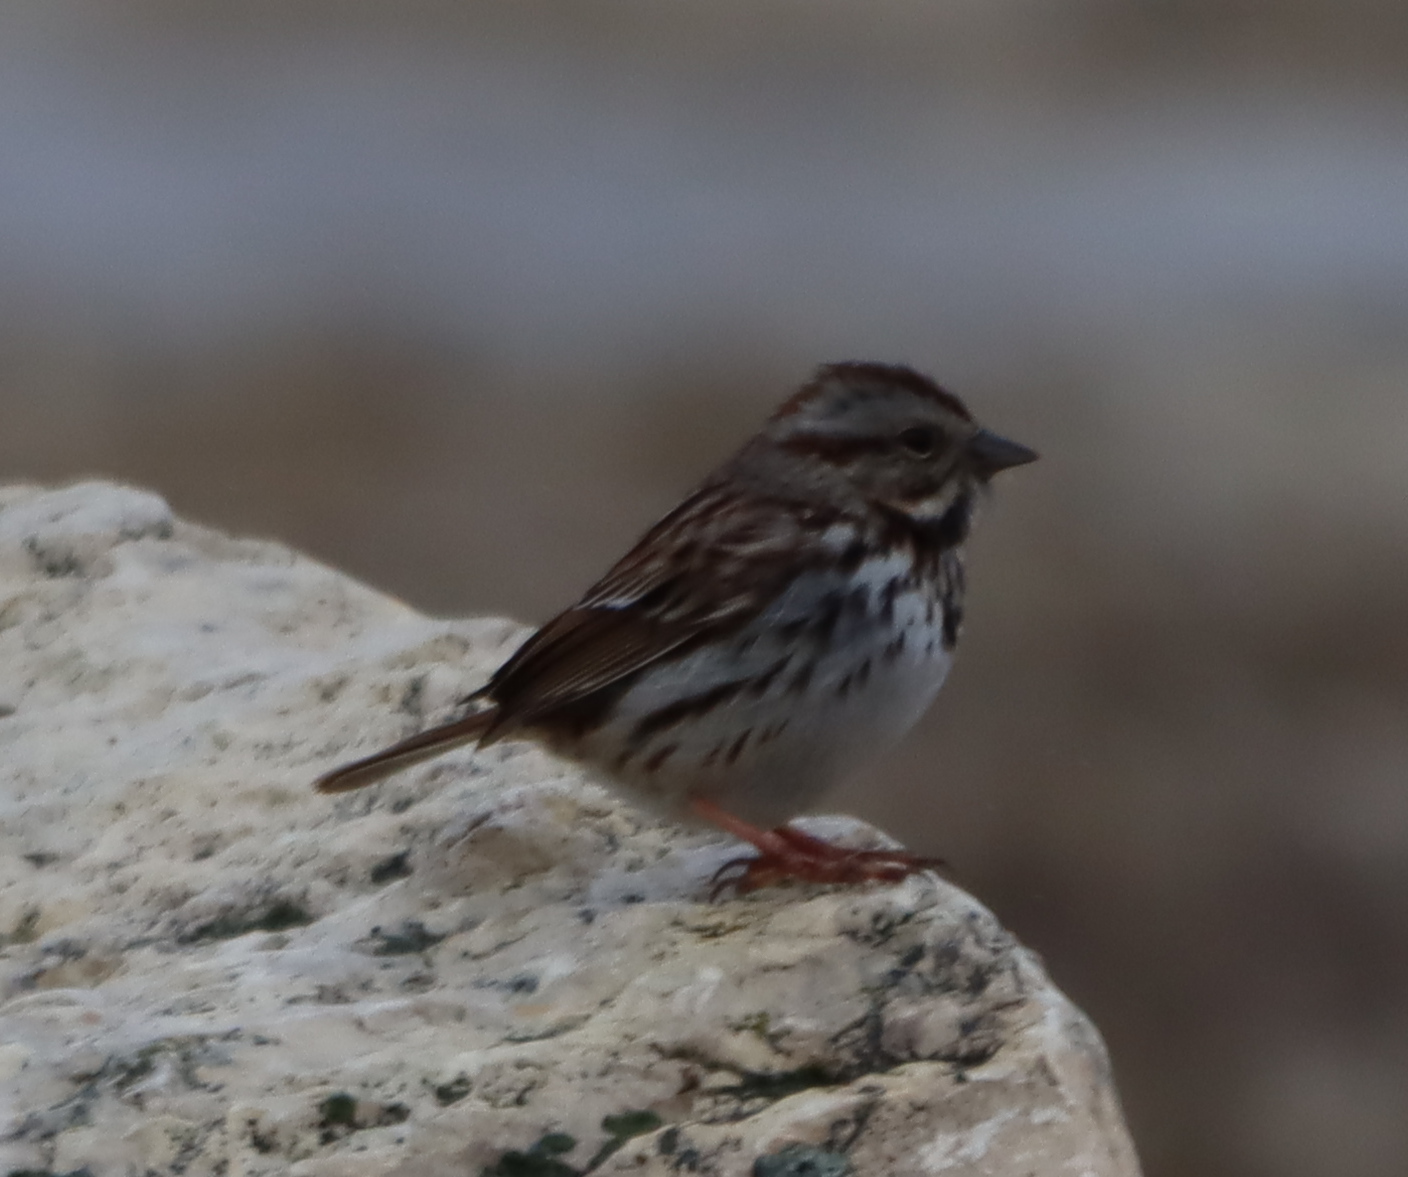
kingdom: Animalia
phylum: Chordata
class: Aves
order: Passeriformes
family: Passerellidae
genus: Melospiza
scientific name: Melospiza melodia
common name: Song sparrow
